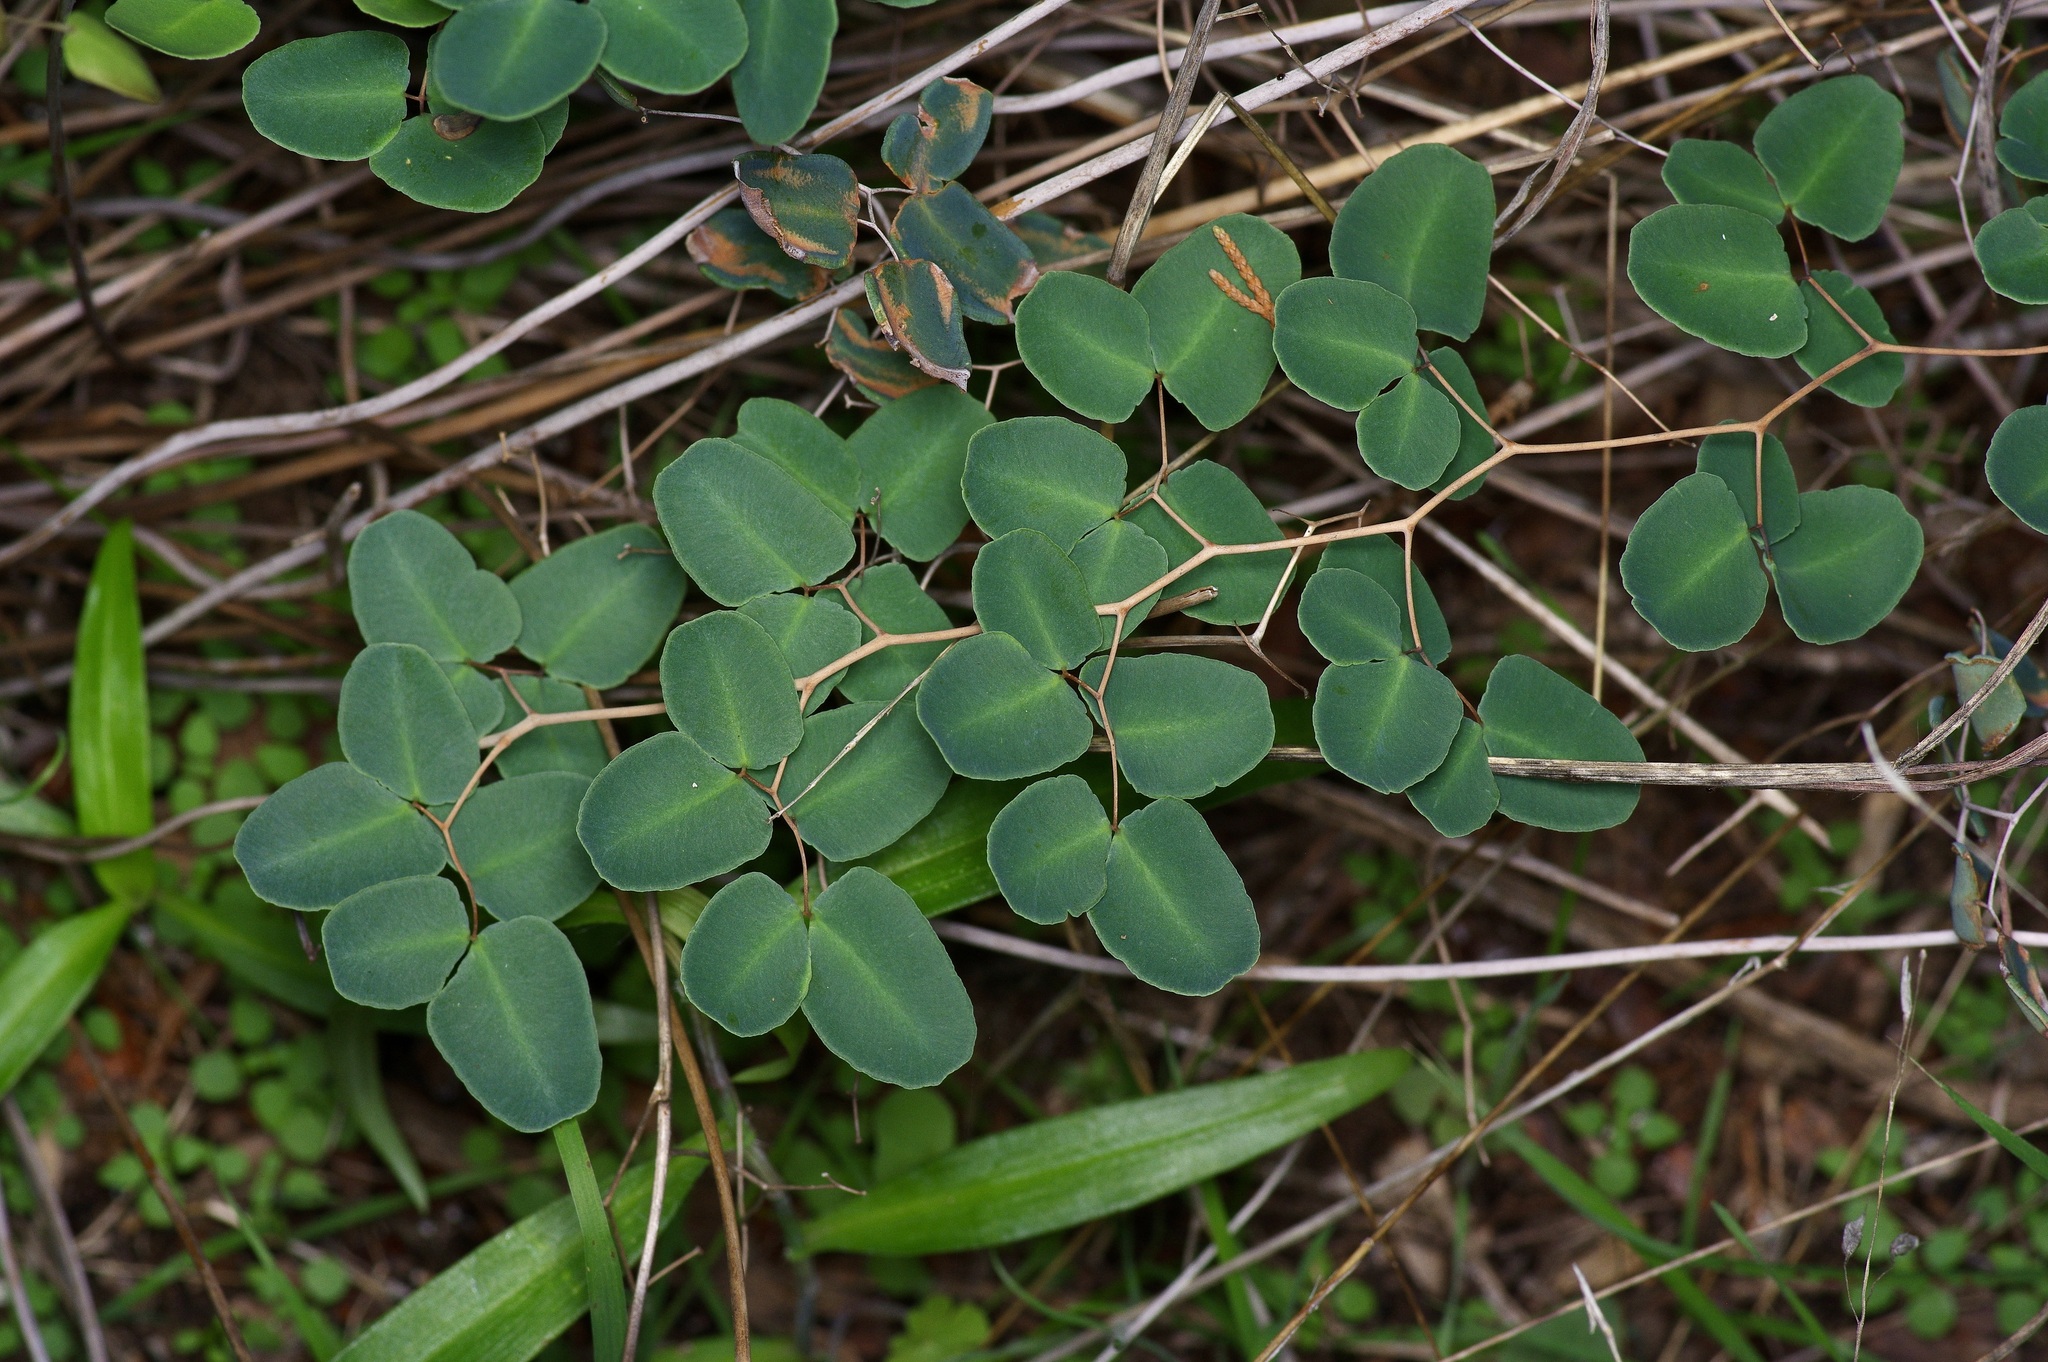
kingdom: Plantae
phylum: Tracheophyta
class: Polypodiopsida
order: Polypodiales
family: Pteridaceae
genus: Pellaea
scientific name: Pellaea ovata
